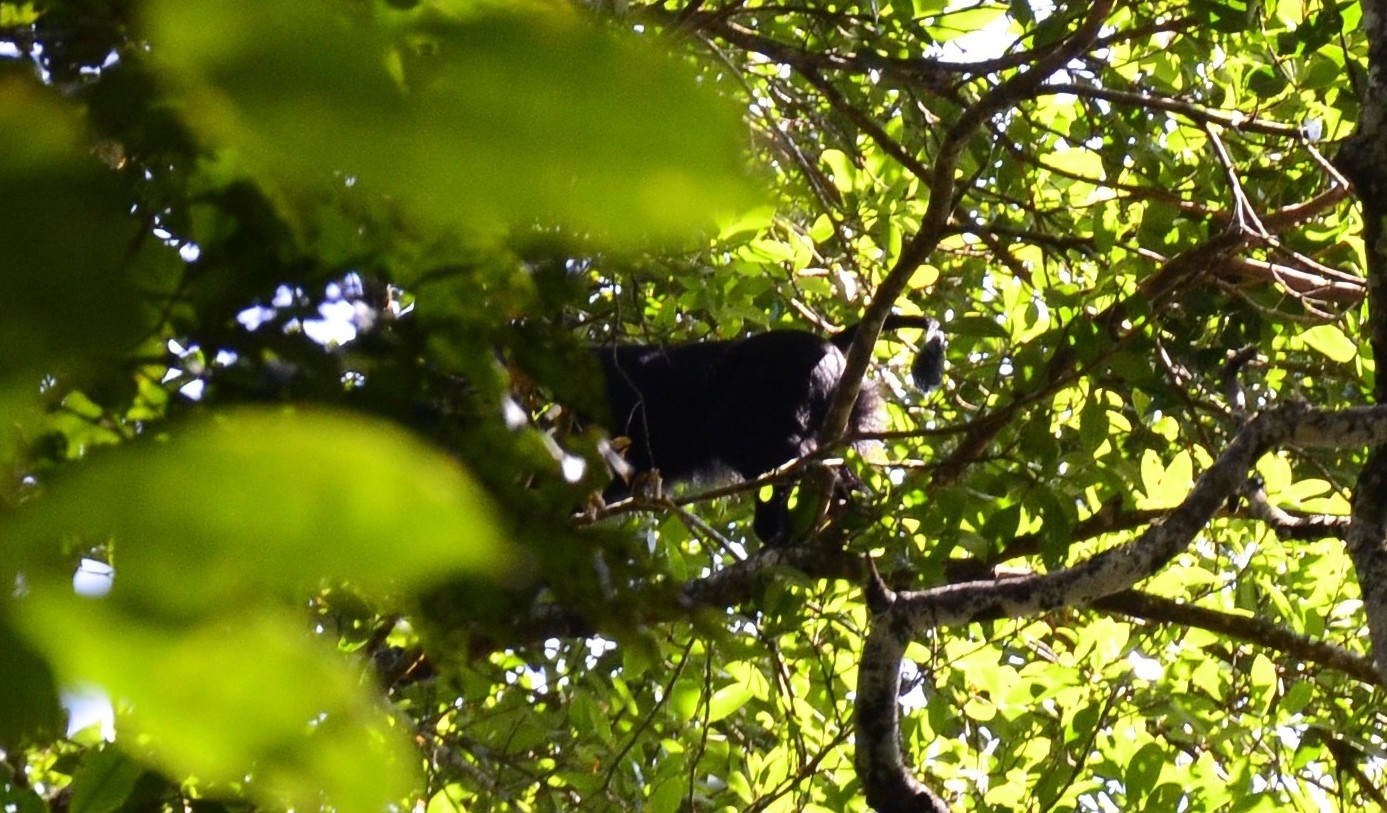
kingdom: Animalia
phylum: Chordata
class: Mammalia
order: Primates
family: Cercopithecidae
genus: Macaca
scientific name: Macaca silenus
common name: Lion-tailed macaque
